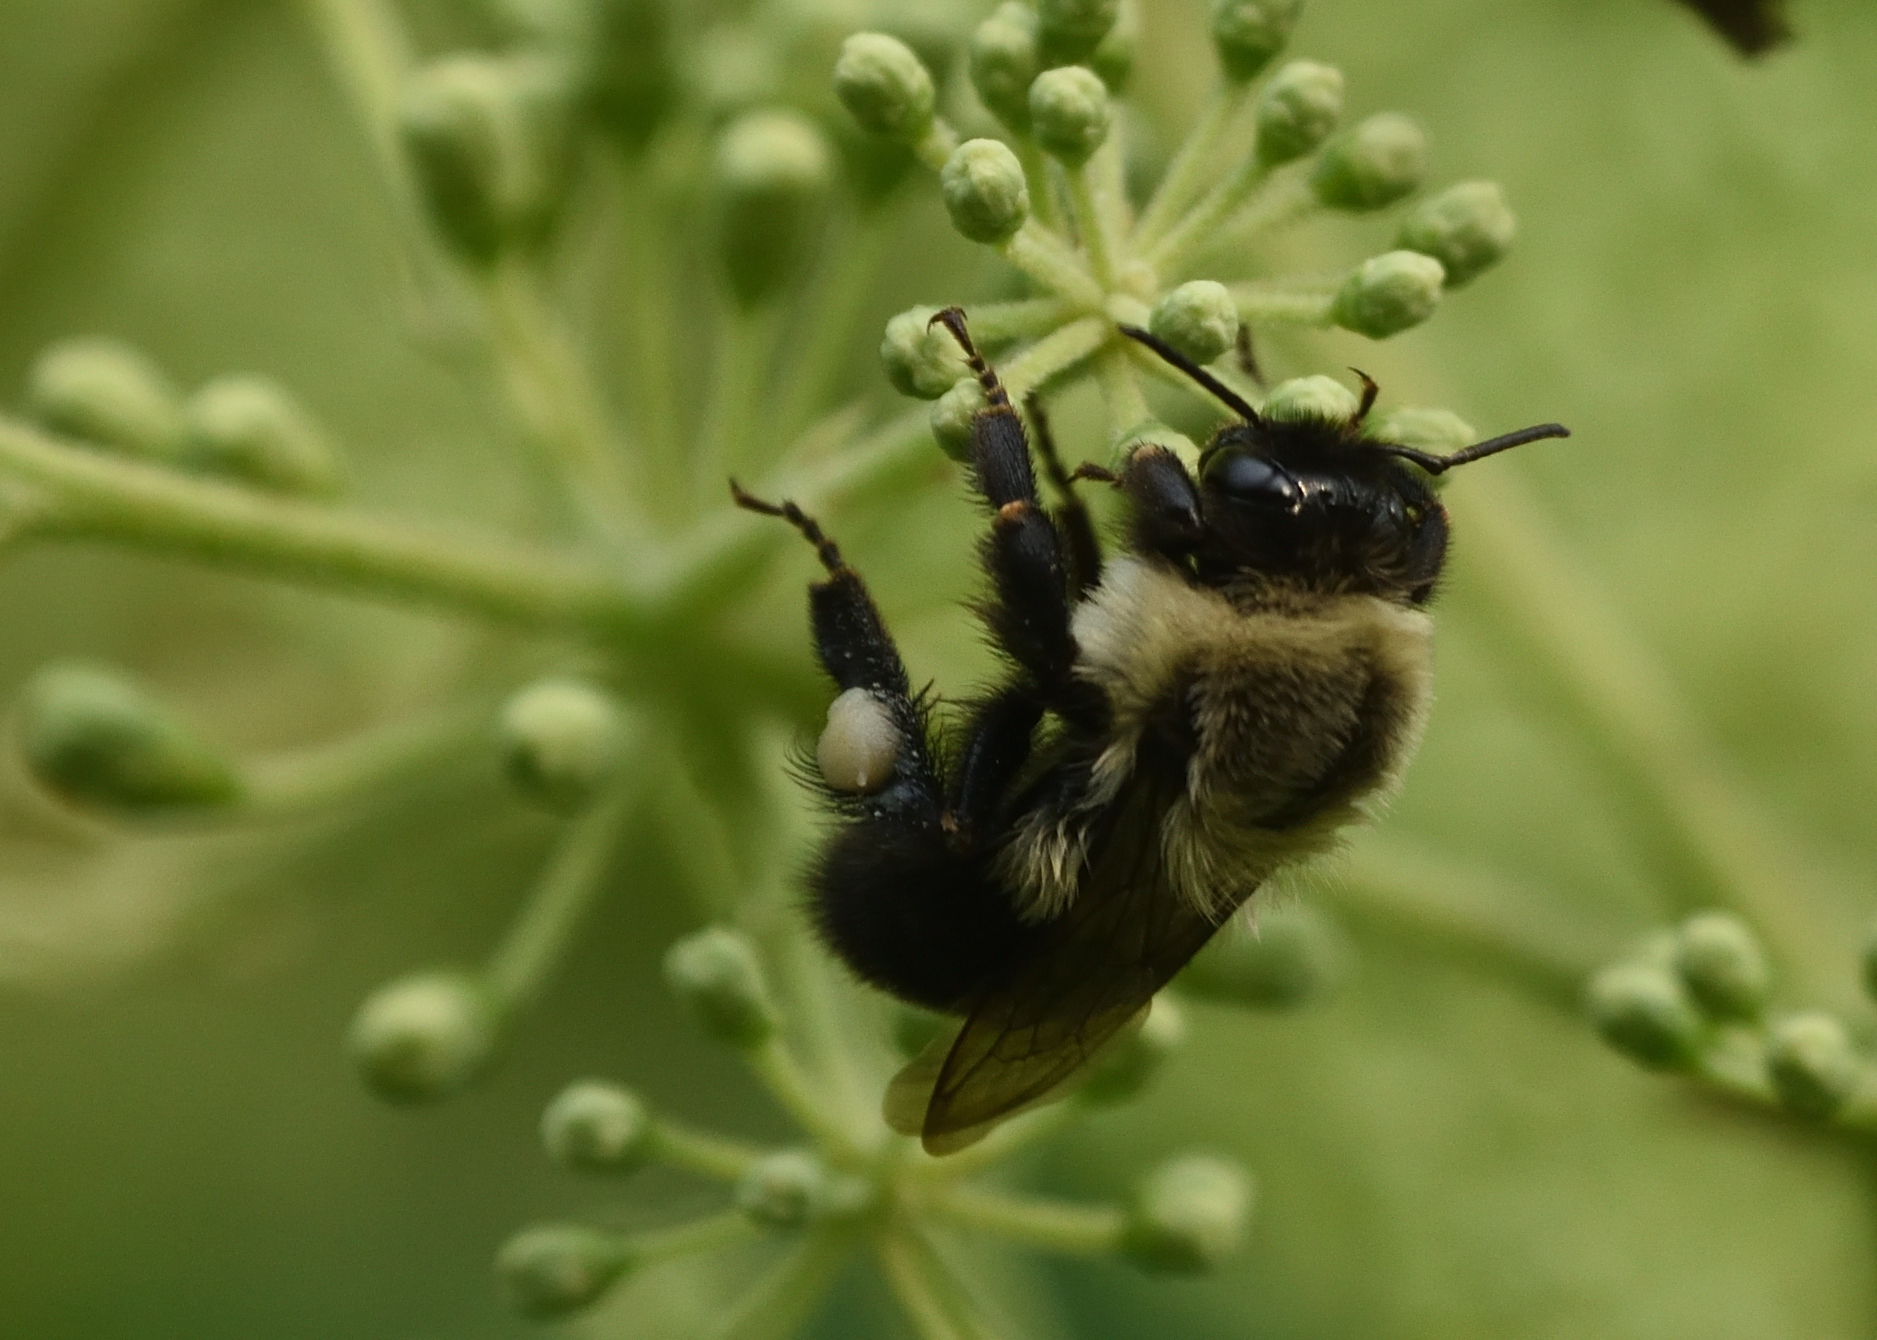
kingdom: Animalia
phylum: Arthropoda
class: Insecta
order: Hymenoptera
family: Apidae
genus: Bombus
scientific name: Bombus impatiens
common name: Common eastern bumble bee
